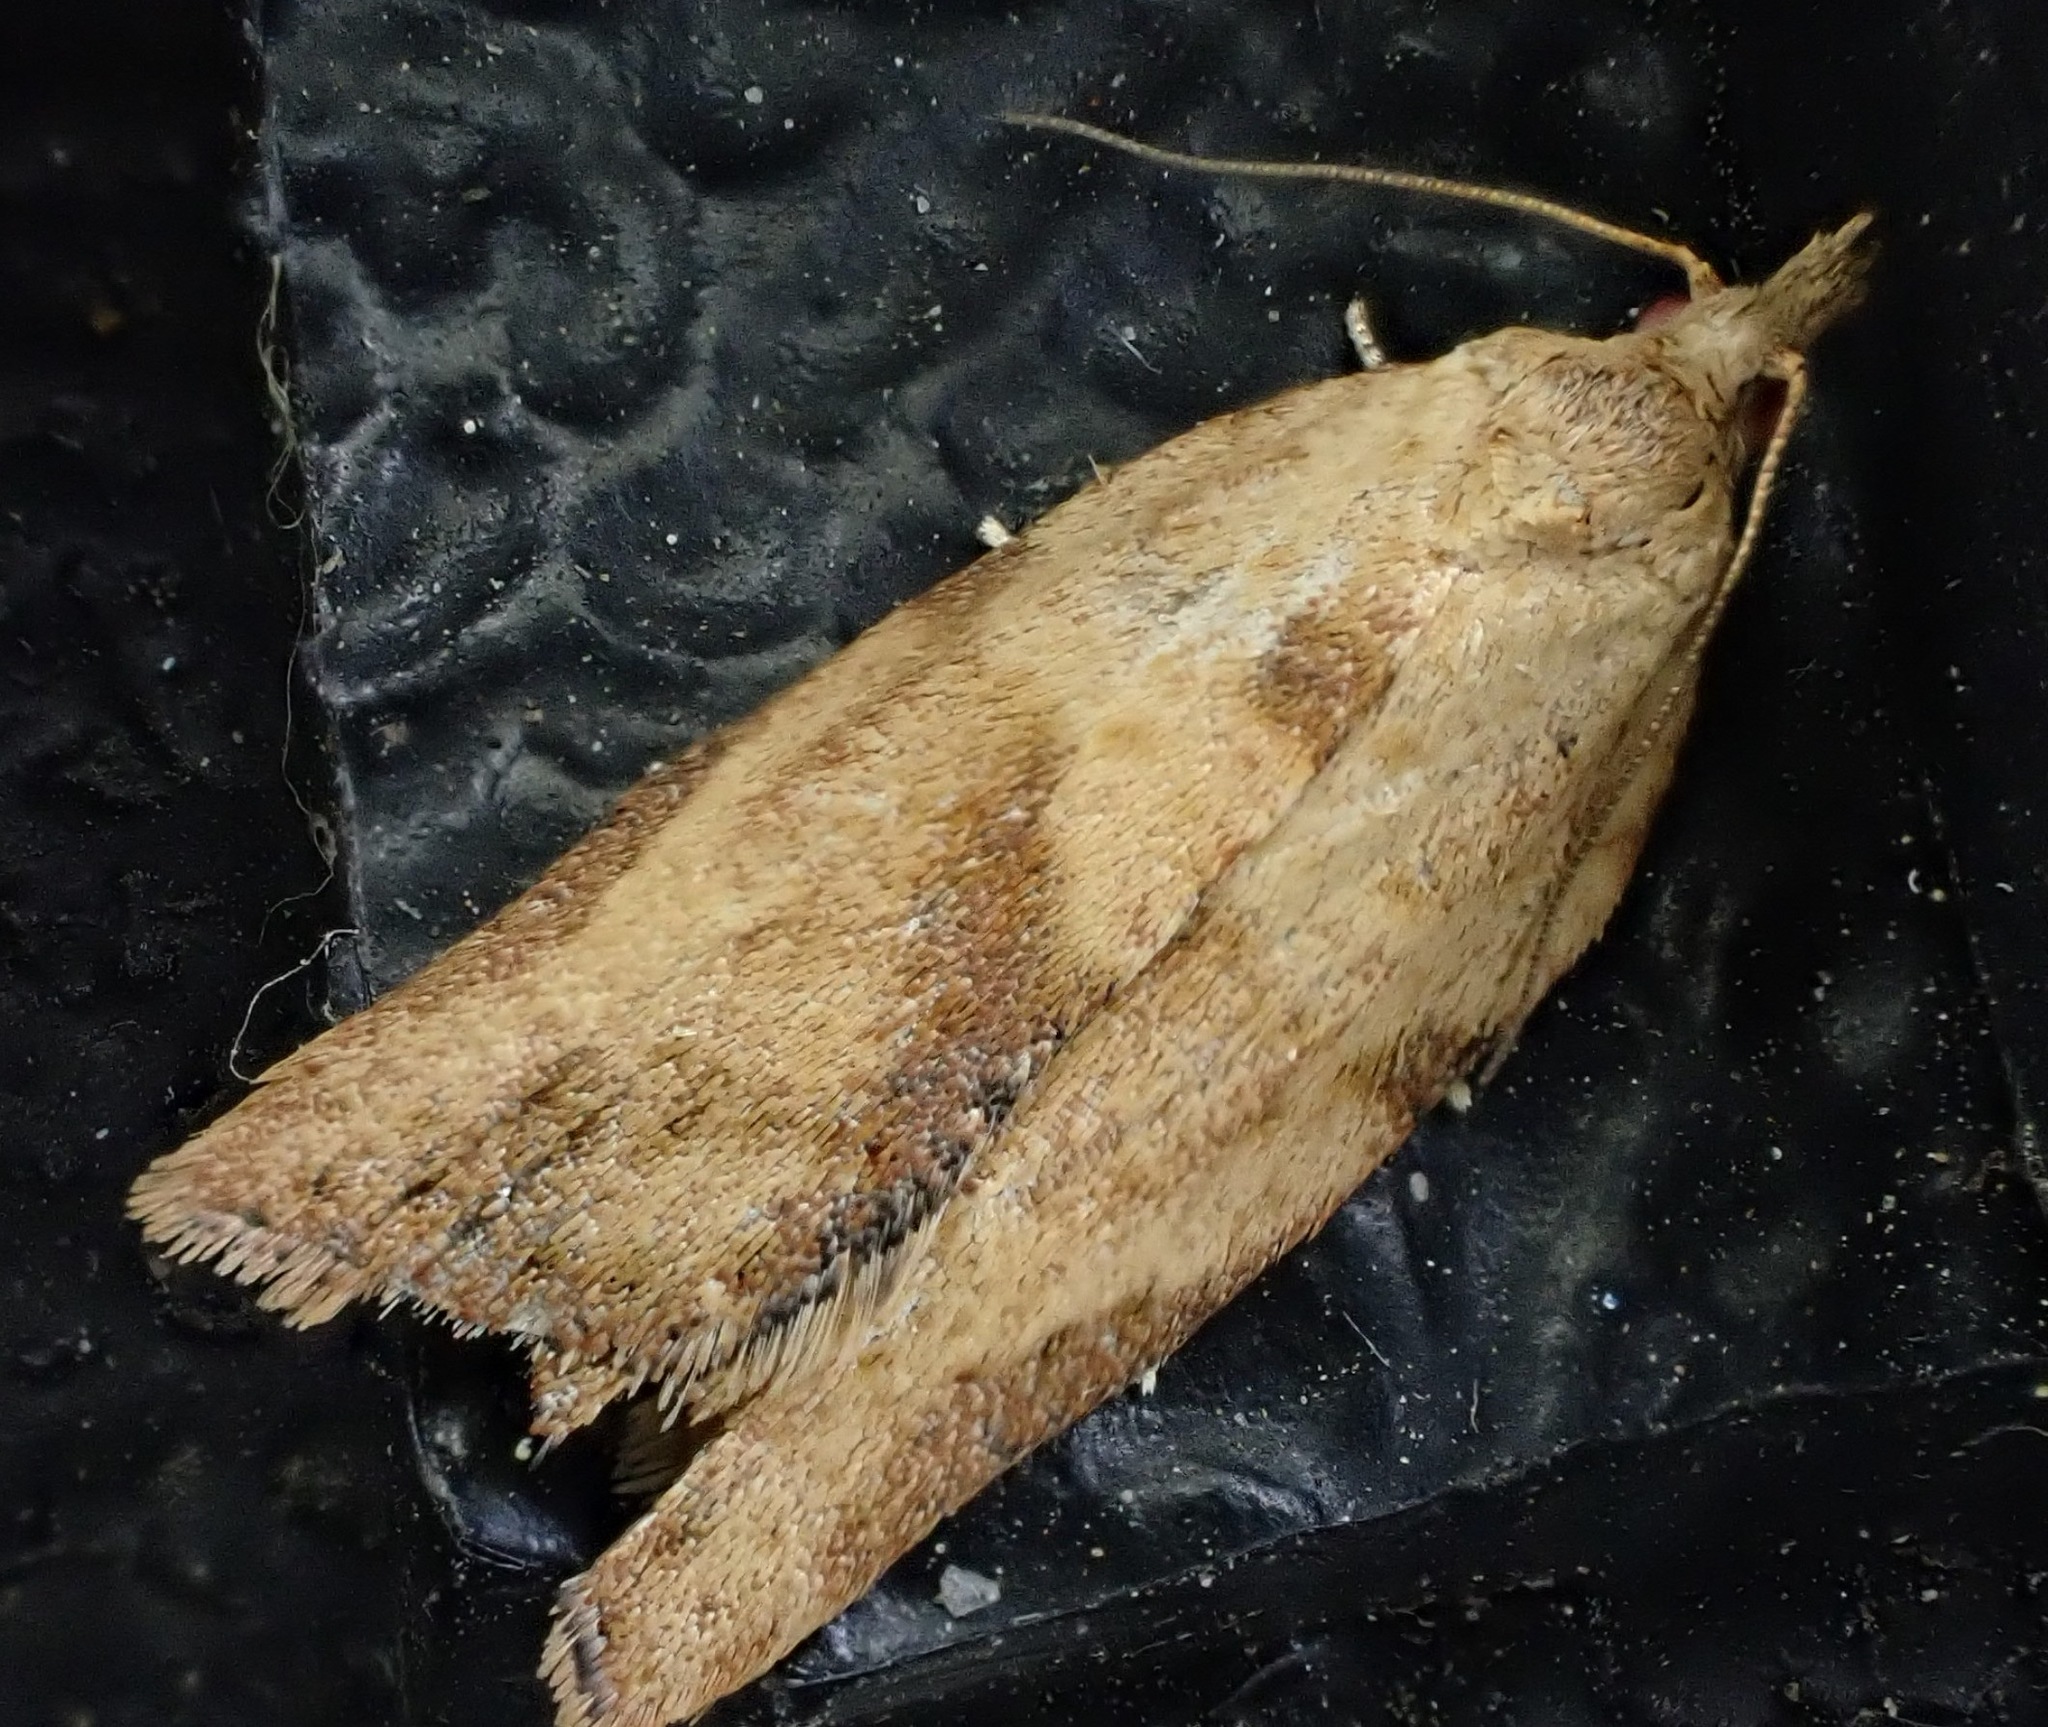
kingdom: Animalia
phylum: Arthropoda
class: Insecta
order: Lepidoptera
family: Tortricidae
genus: Epiphyas
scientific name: Epiphyas postvittana
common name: Light brown apple moth
